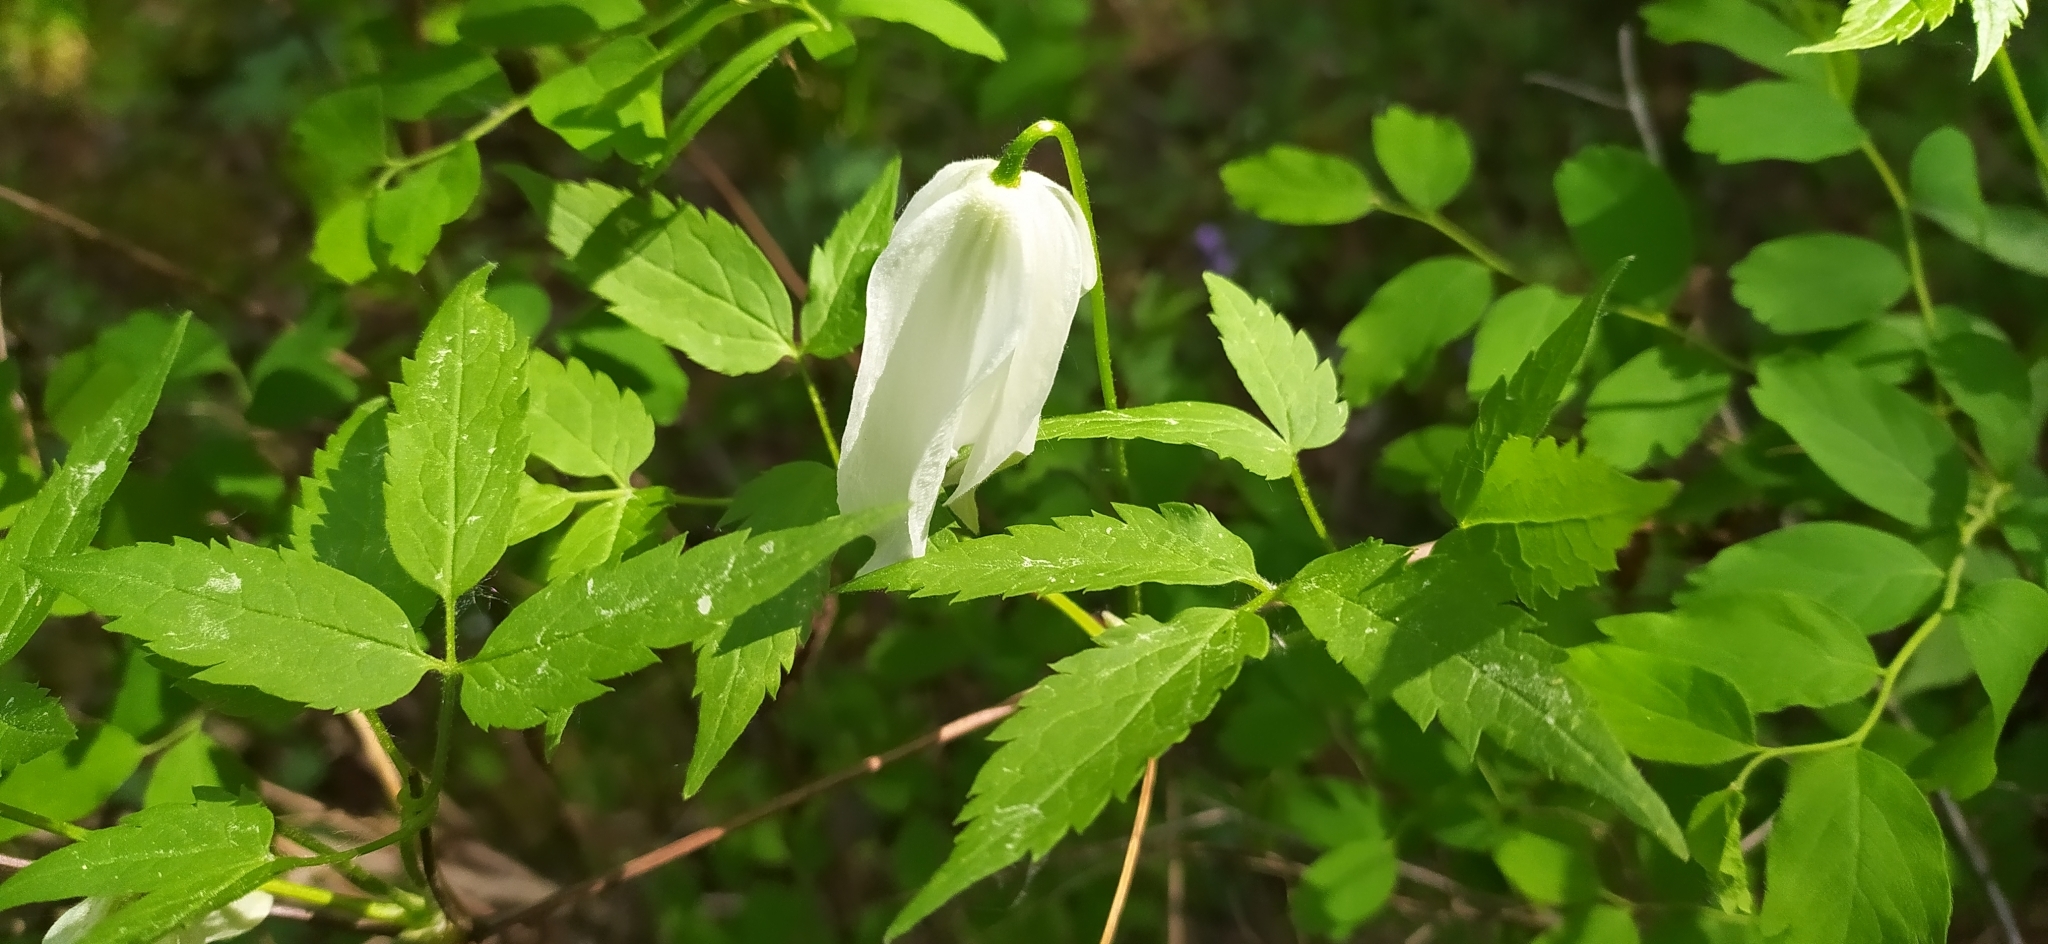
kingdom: Plantae
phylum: Tracheophyta
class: Magnoliopsida
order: Ranunculales
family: Ranunculaceae
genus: Clematis
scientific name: Clematis sibirica
